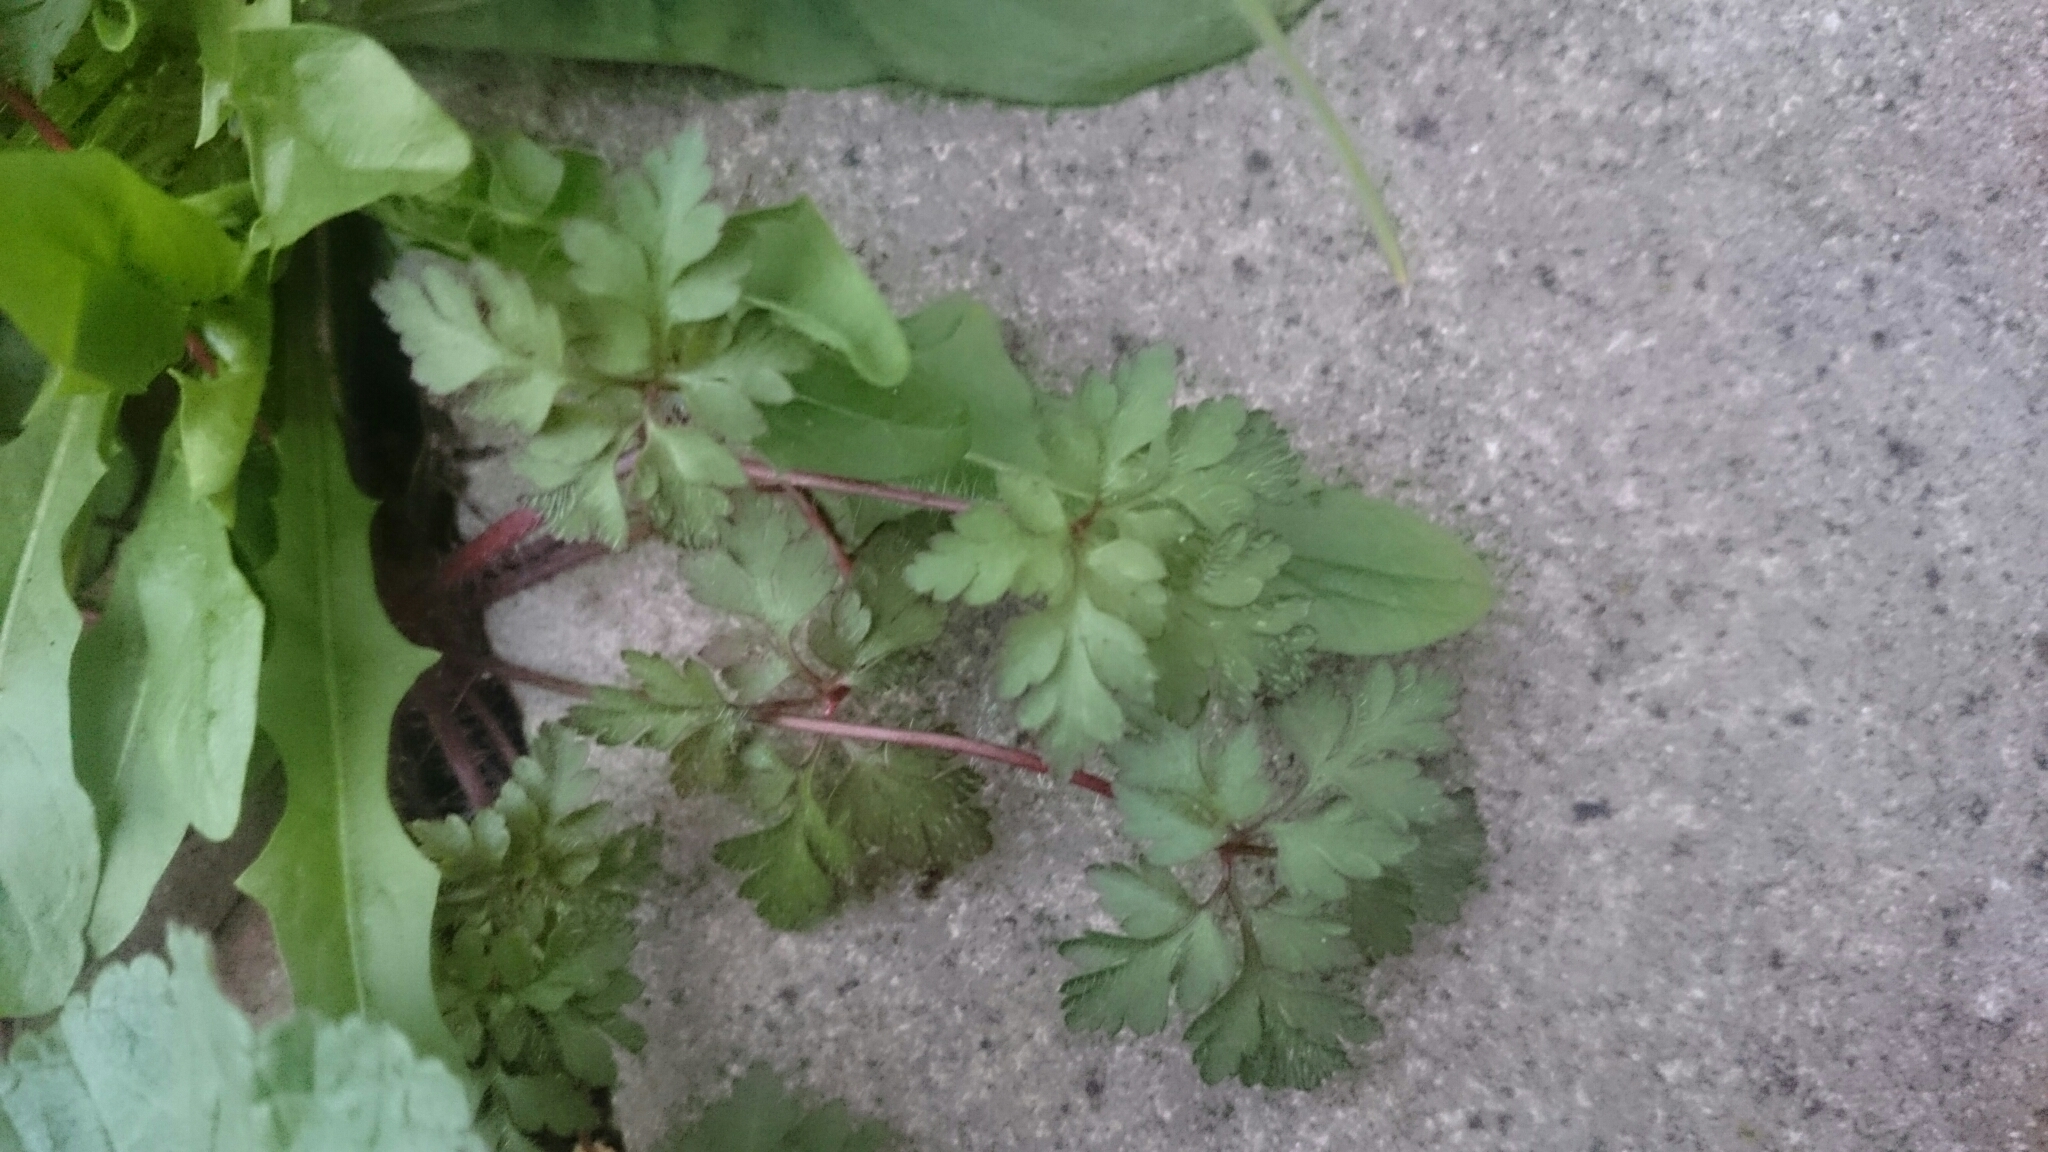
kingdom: Plantae
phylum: Tracheophyta
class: Magnoliopsida
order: Geraniales
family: Geraniaceae
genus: Geranium
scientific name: Geranium robertianum
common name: Herb-robert
